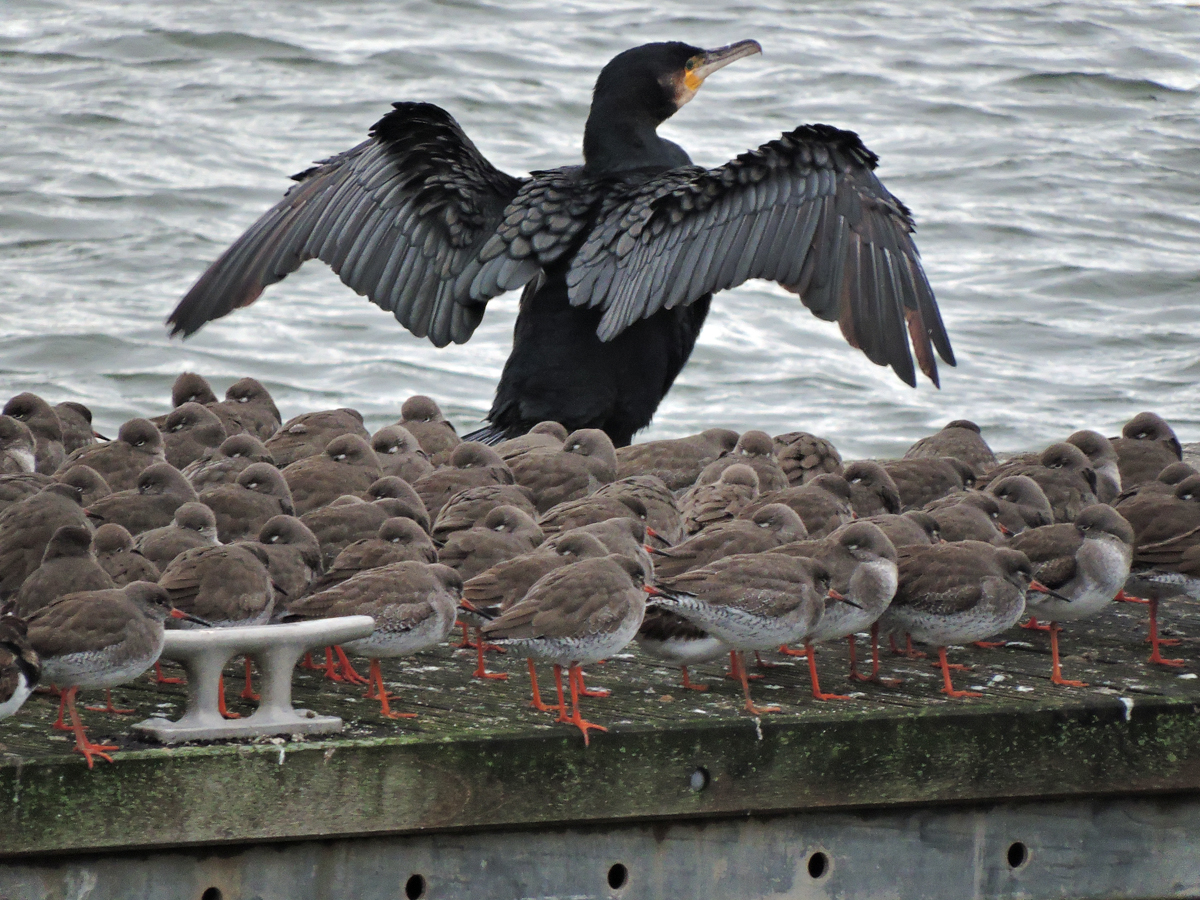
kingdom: Animalia
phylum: Chordata
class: Aves
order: Suliformes
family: Phalacrocoracidae
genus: Phalacrocorax
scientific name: Phalacrocorax carbo
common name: Great cormorant
